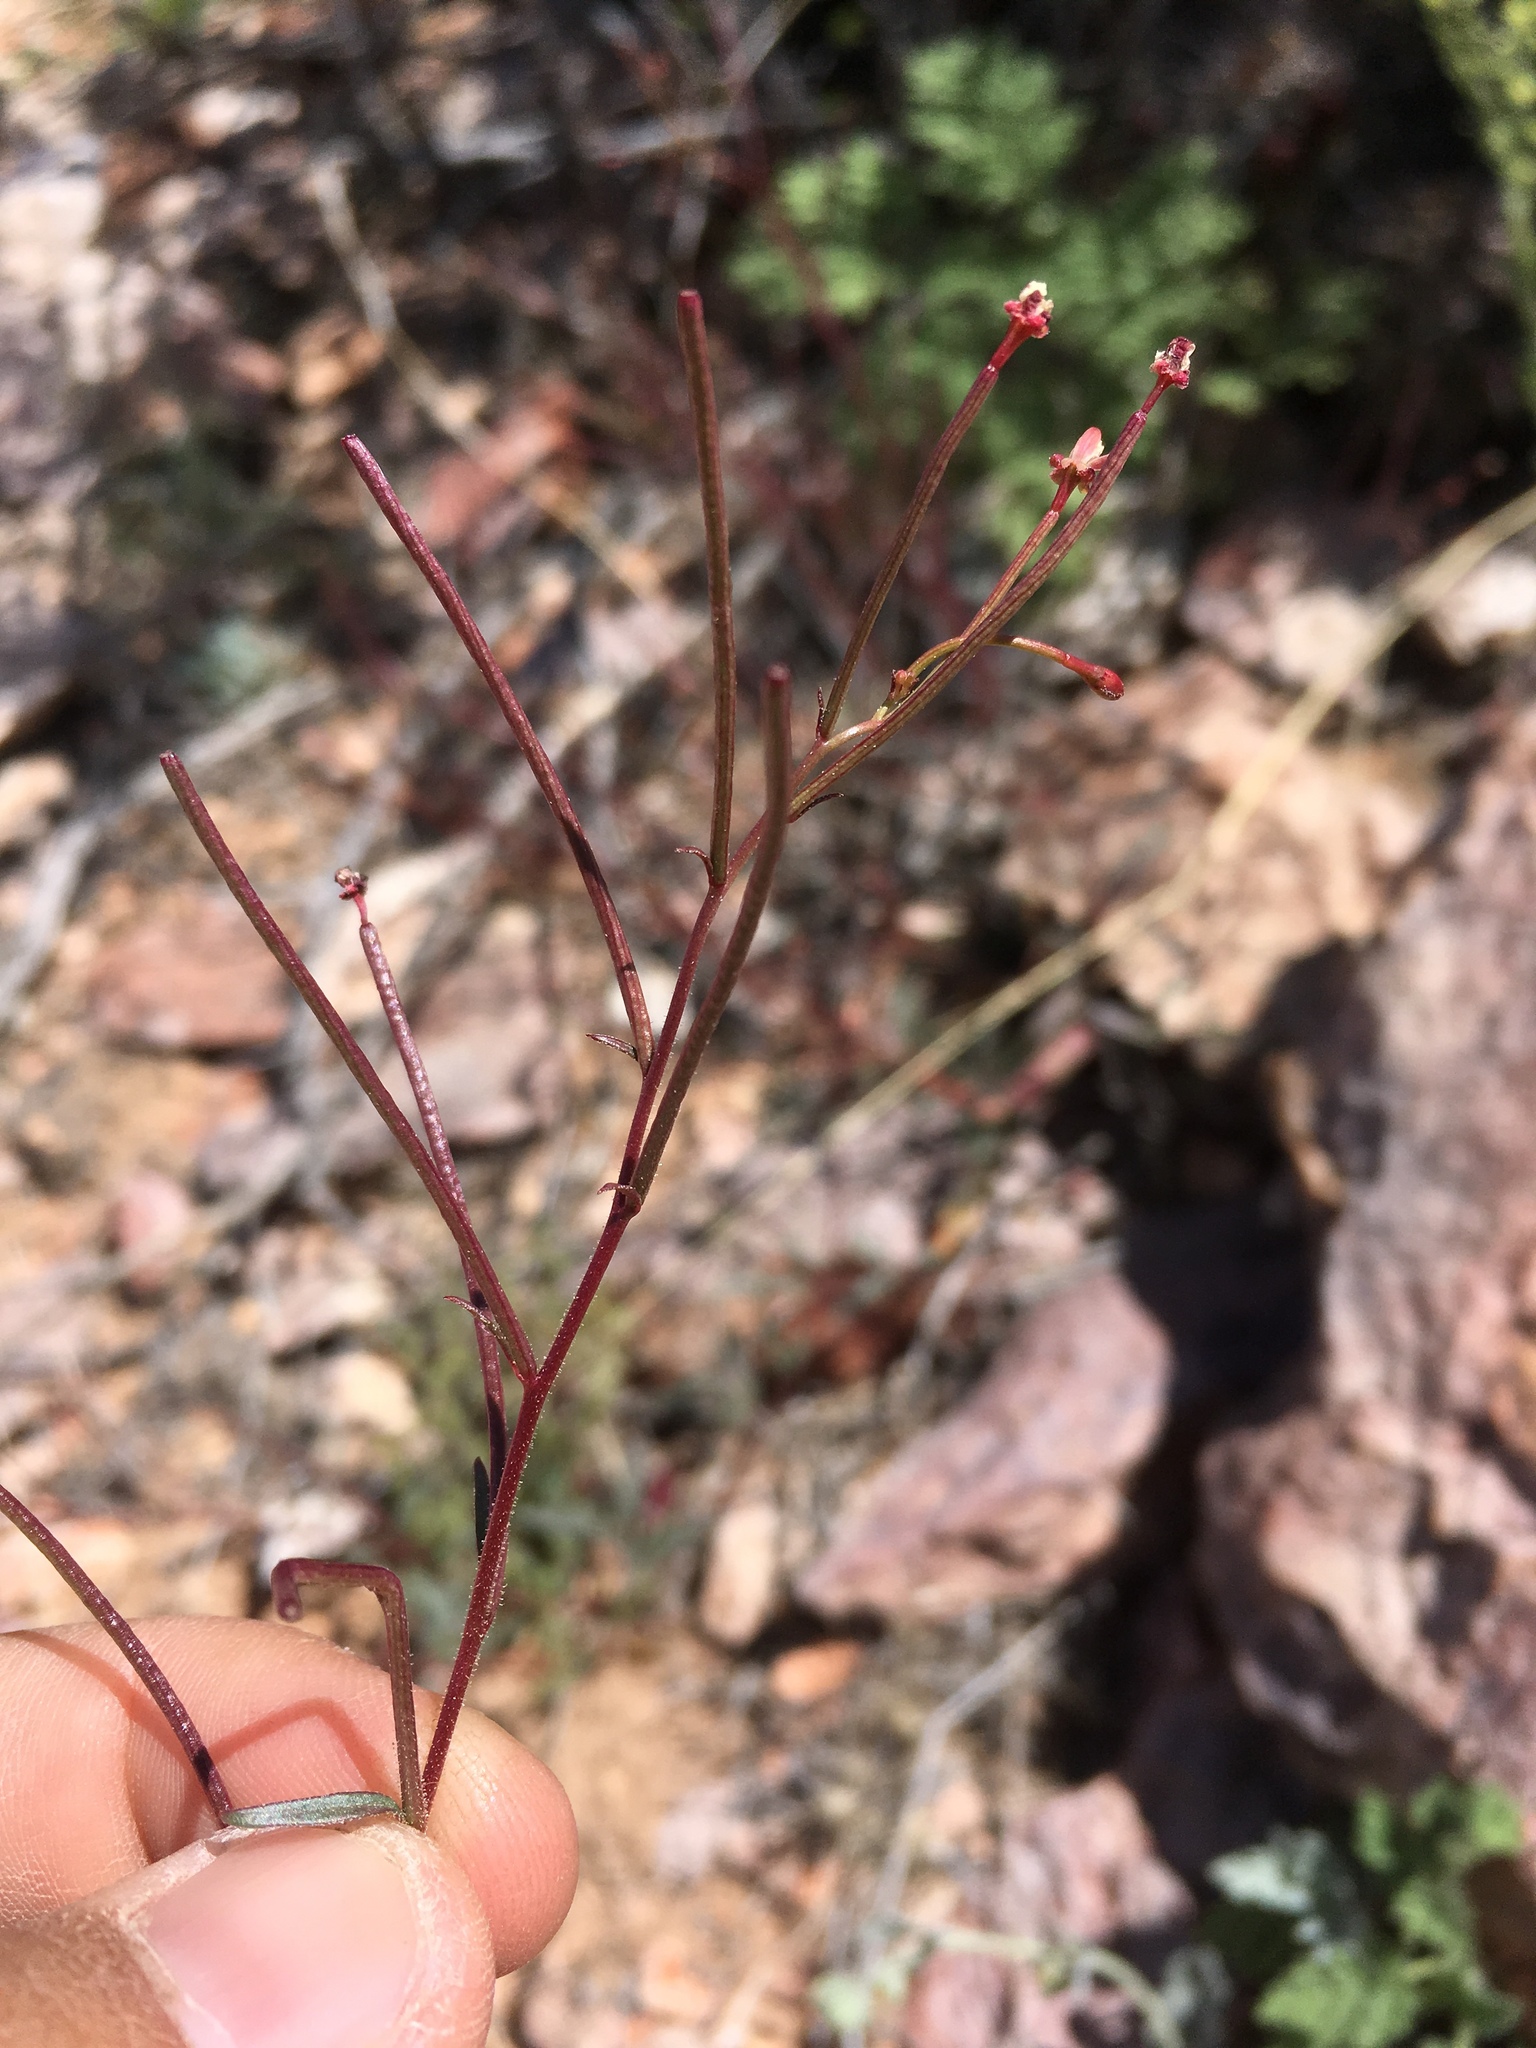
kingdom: Plantae
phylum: Tracheophyta
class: Magnoliopsida
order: Myrtales
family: Onagraceae
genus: Eremothera
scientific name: Eremothera chamaenerioides
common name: Longcapsule suncup
